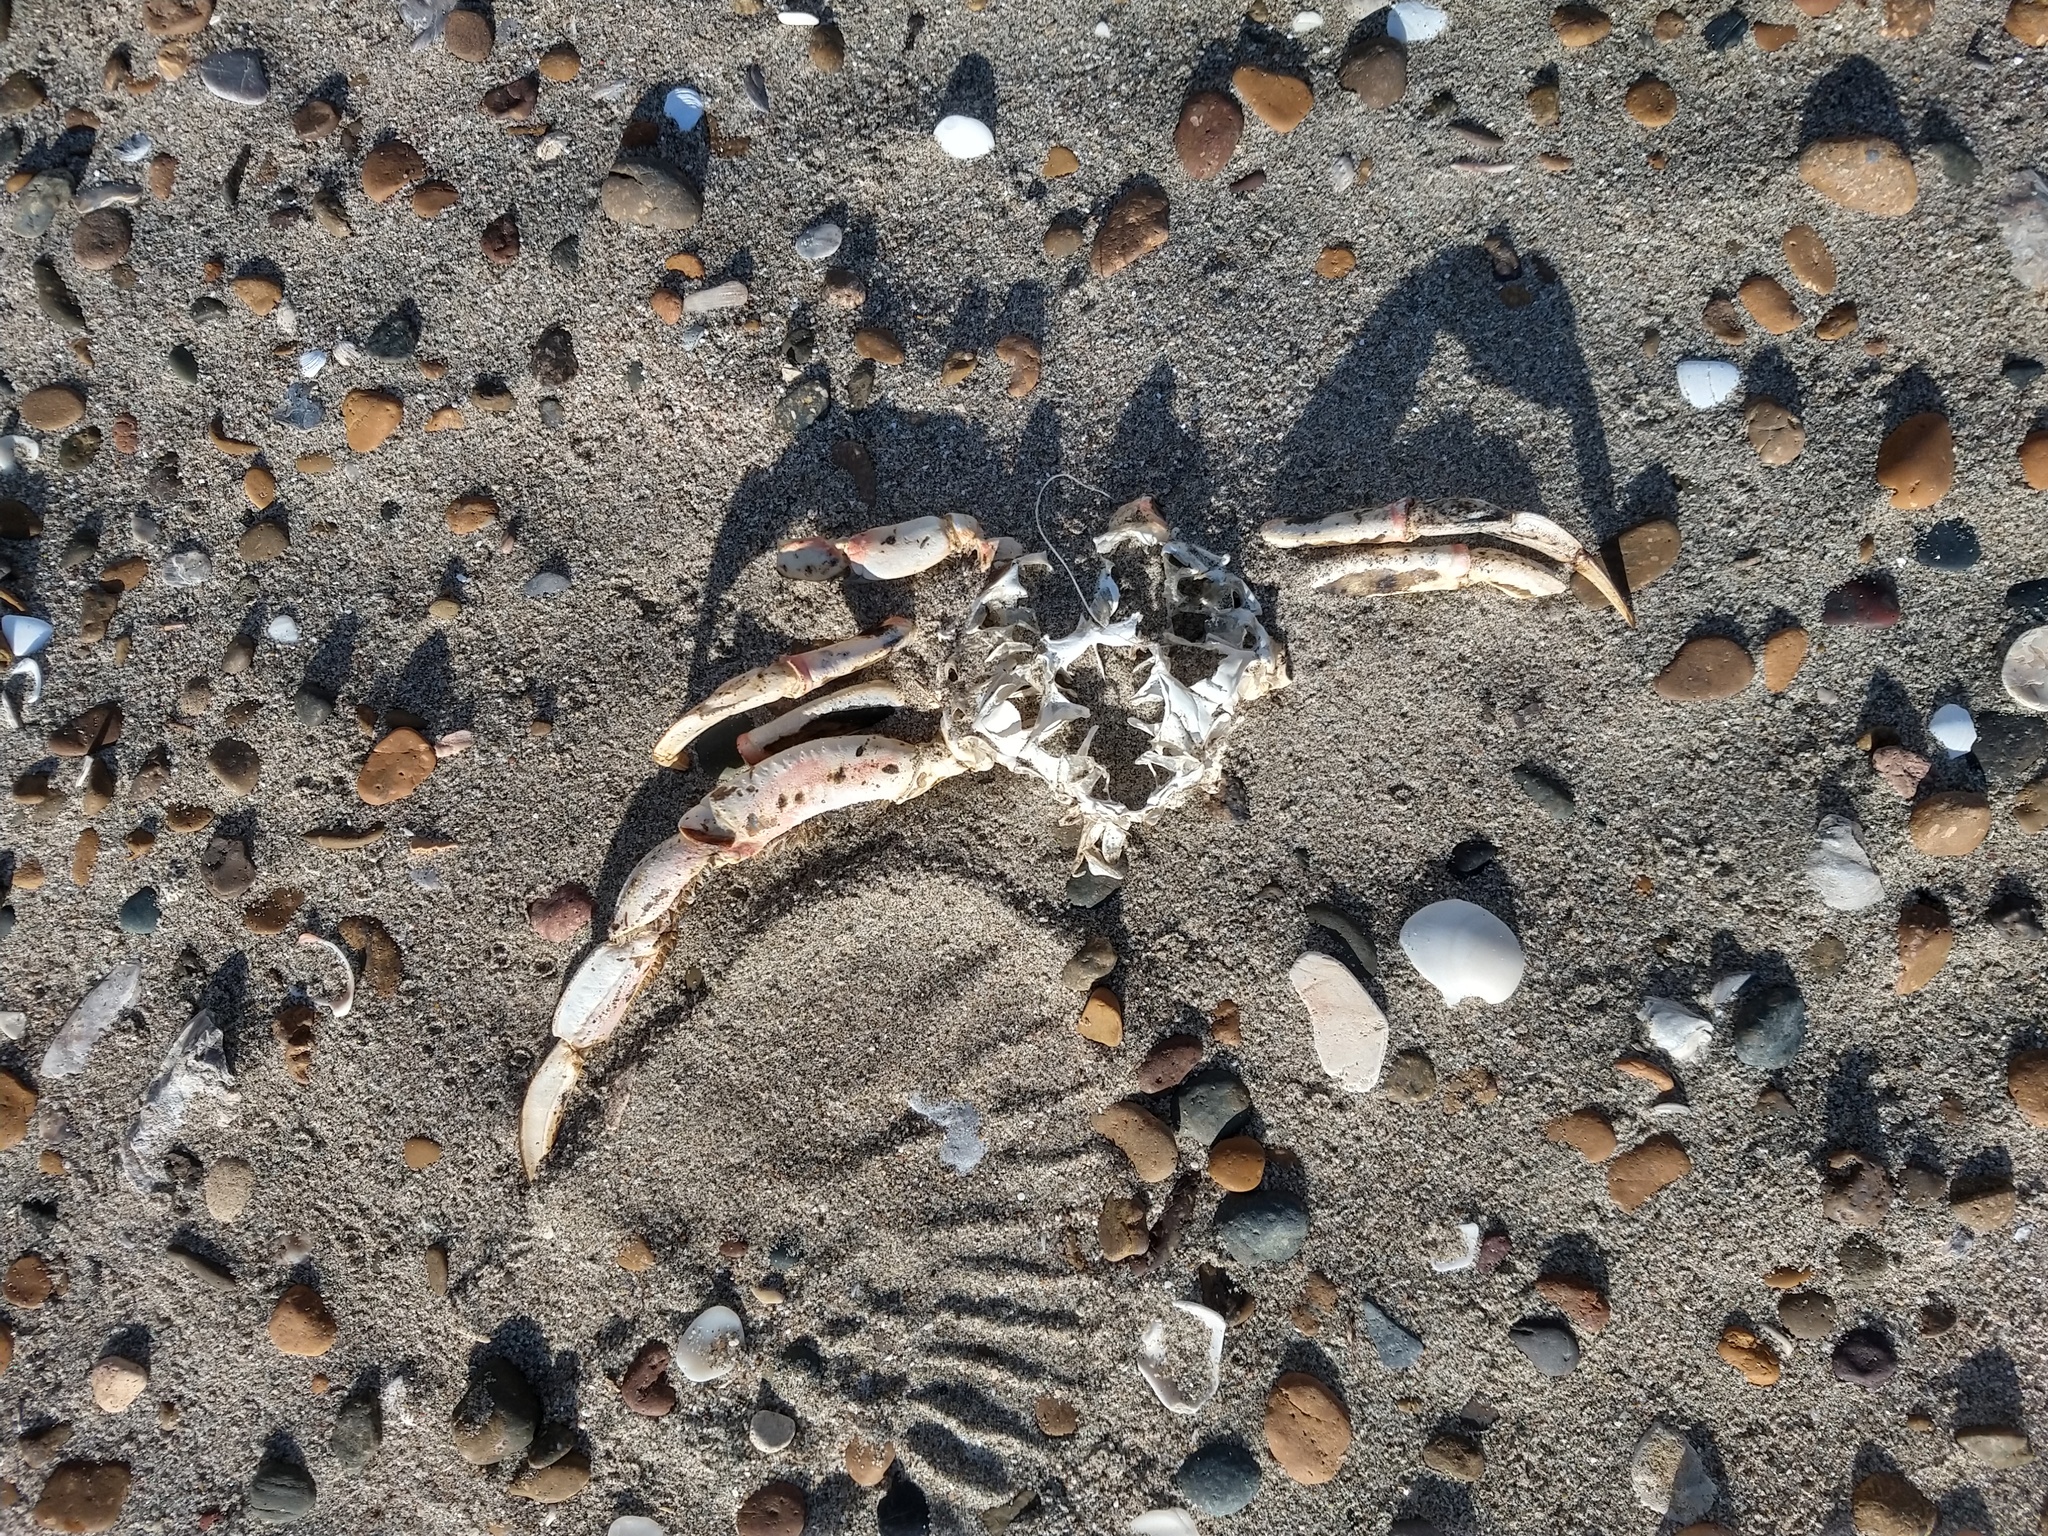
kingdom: Animalia
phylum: Arthropoda
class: Malacostraca
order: Decapoda
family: Ovalipidae
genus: Ovalipes
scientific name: Ovalipes trimaculatus
